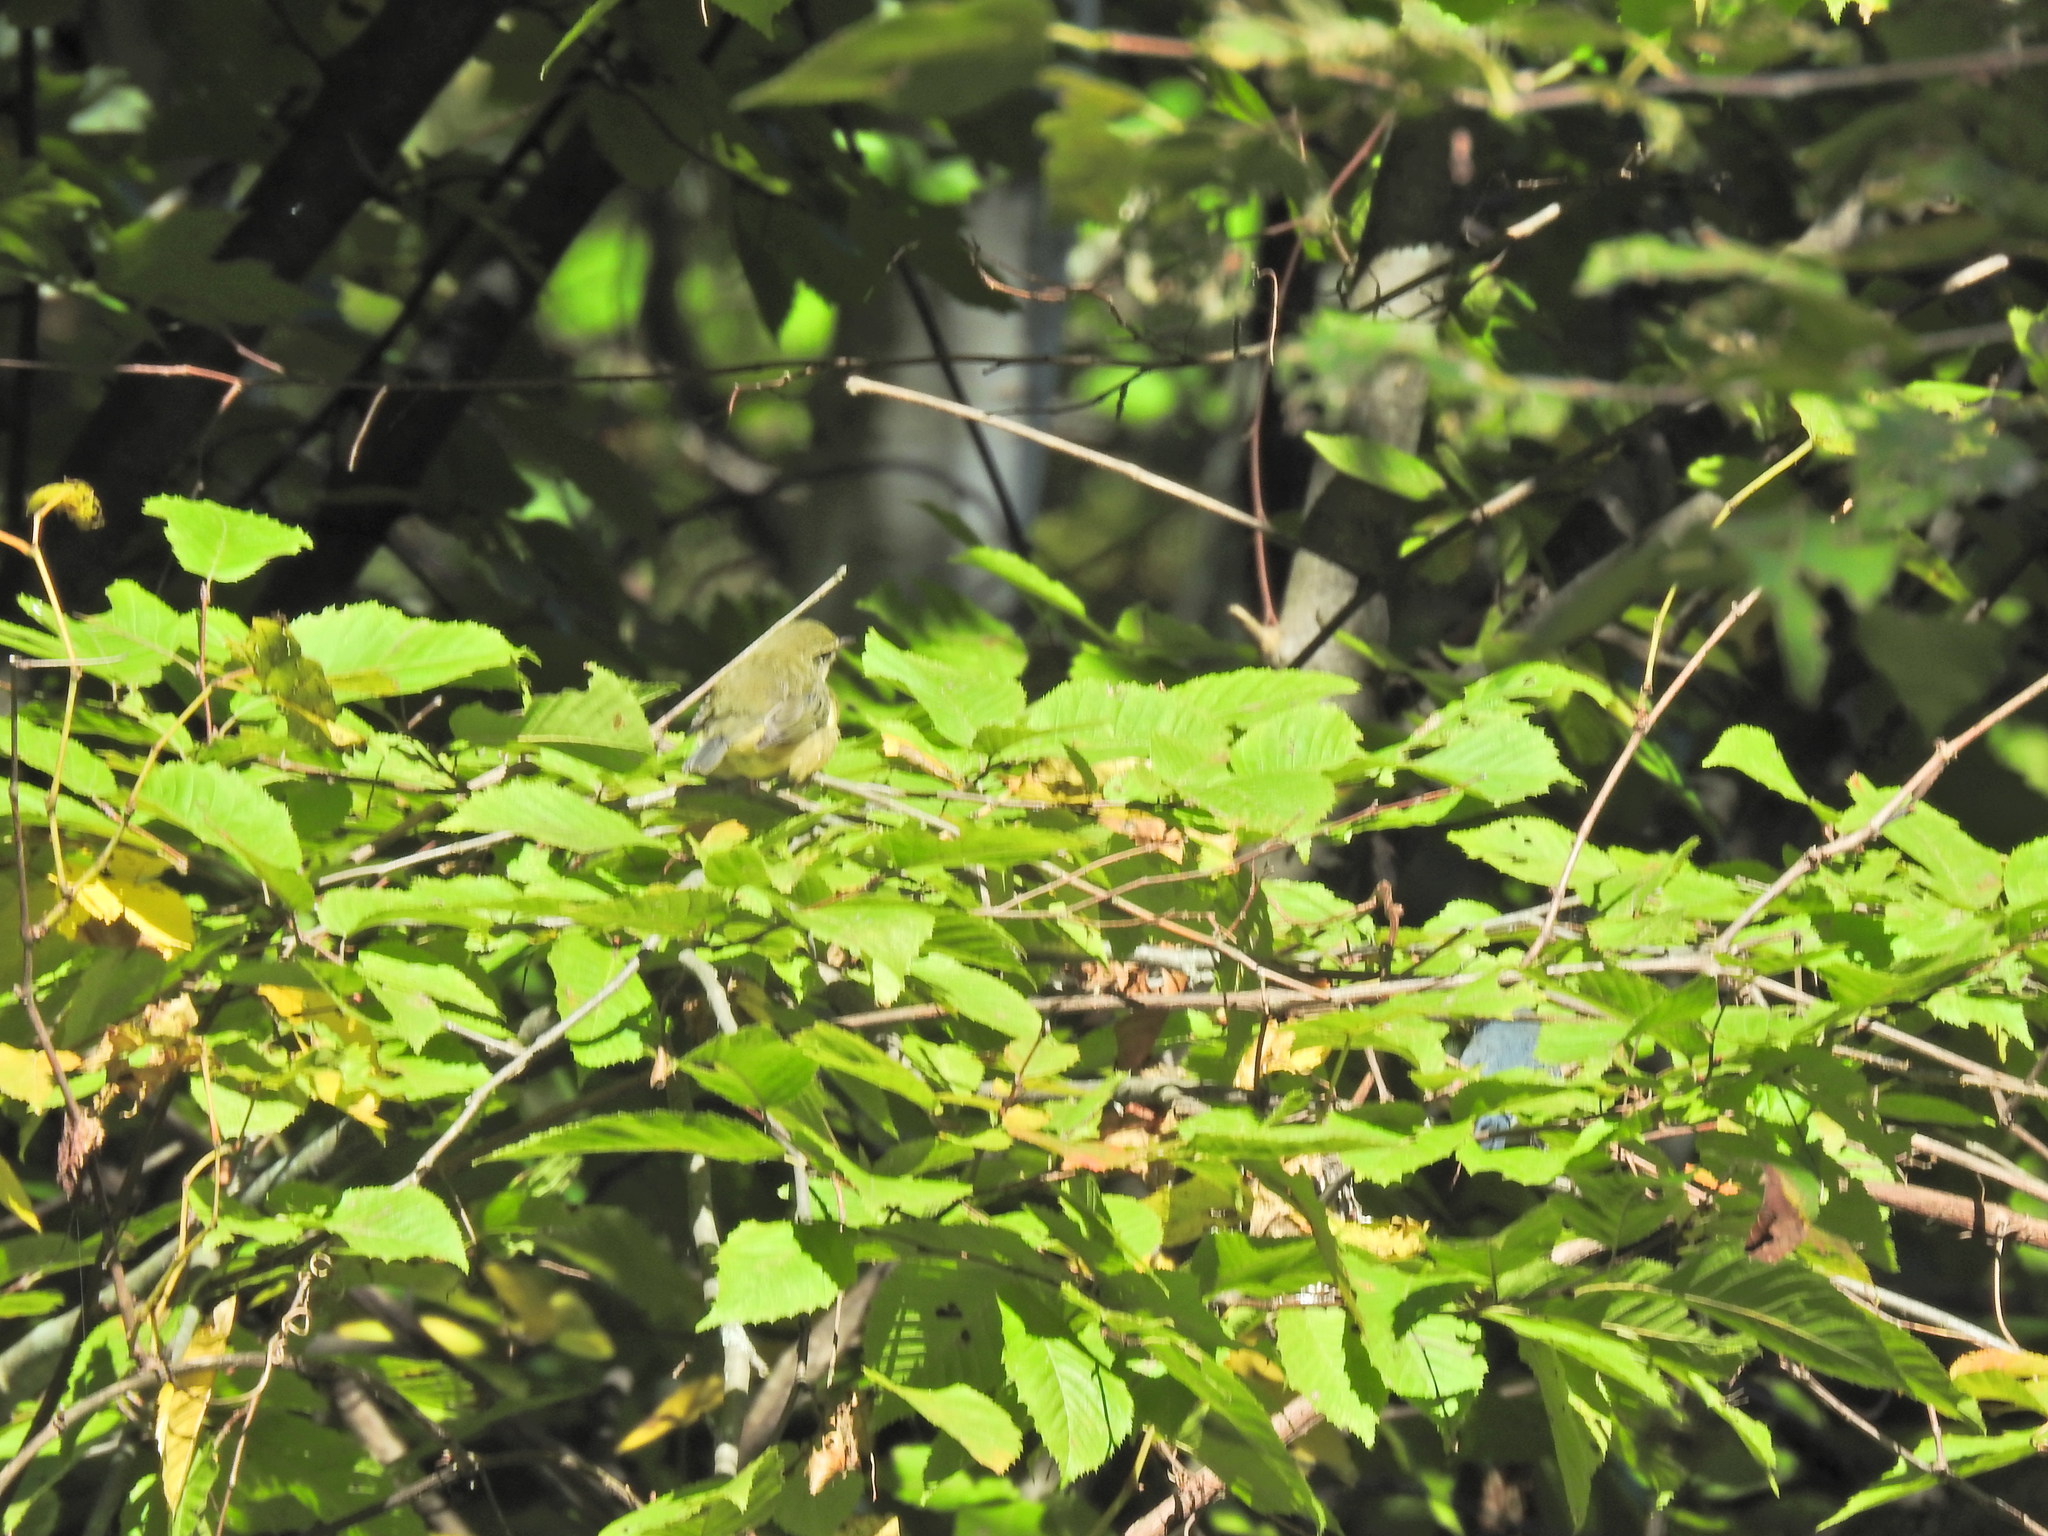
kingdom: Animalia
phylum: Chordata
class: Aves
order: Passeriformes
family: Parulidae
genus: Setophaga
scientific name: Setophaga caerulescens
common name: Black-throated blue warbler
